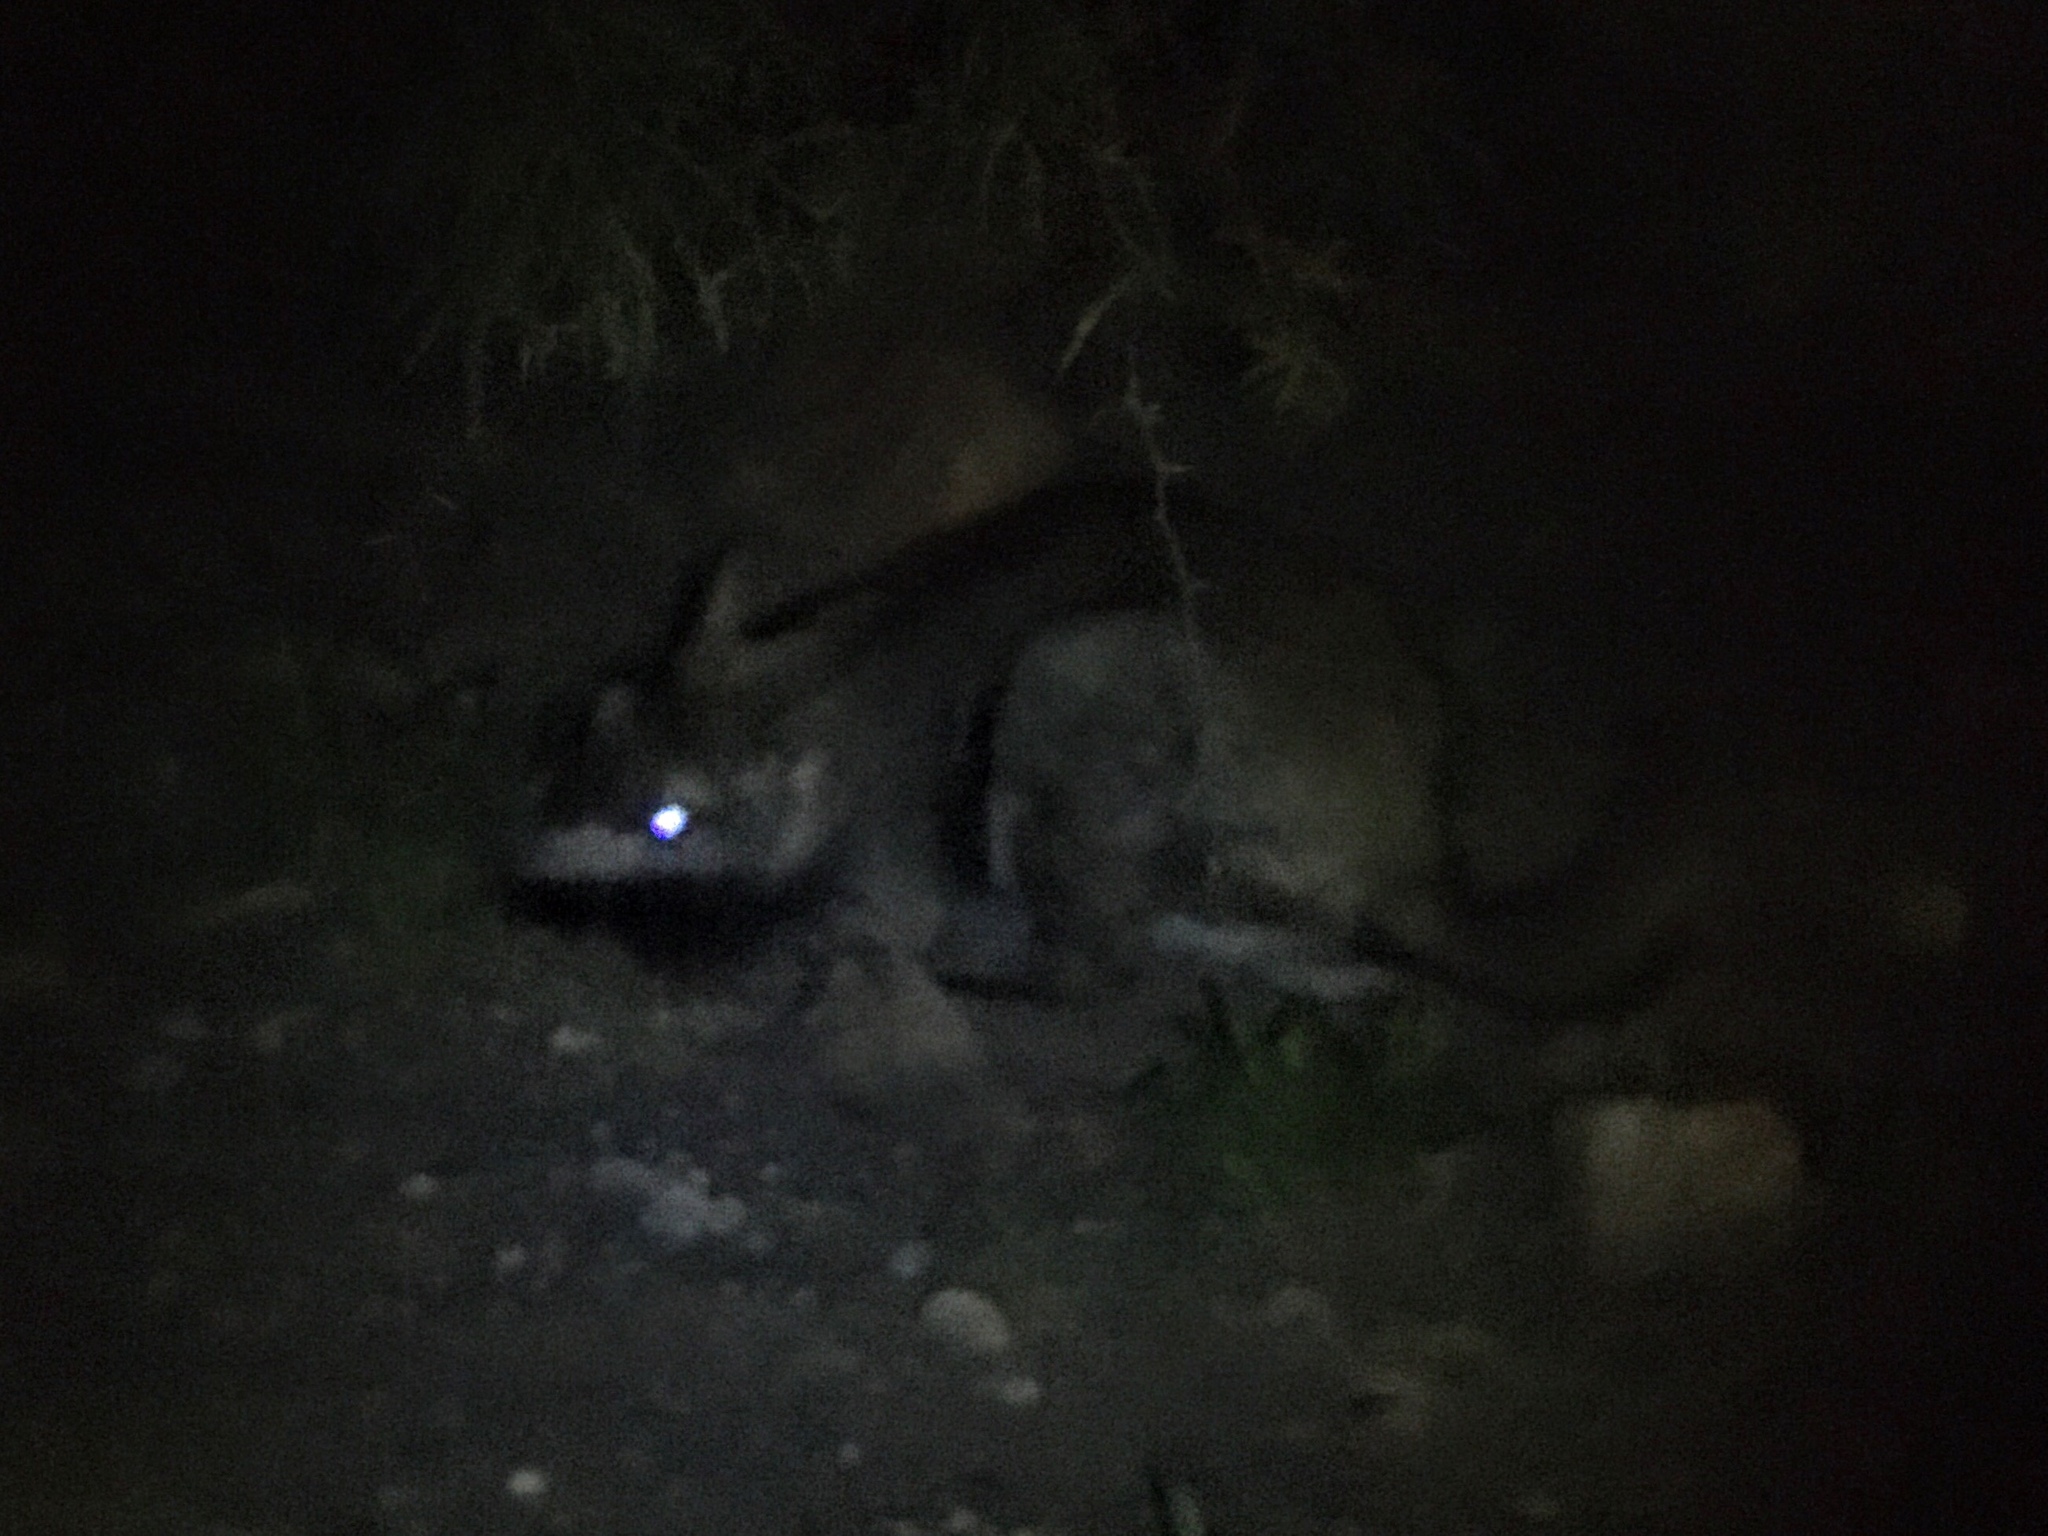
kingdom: Animalia
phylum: Chordata
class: Mammalia
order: Rodentia
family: Chinchillidae
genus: Lagostomus
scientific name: Lagostomus maximus
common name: Plains viscacha
